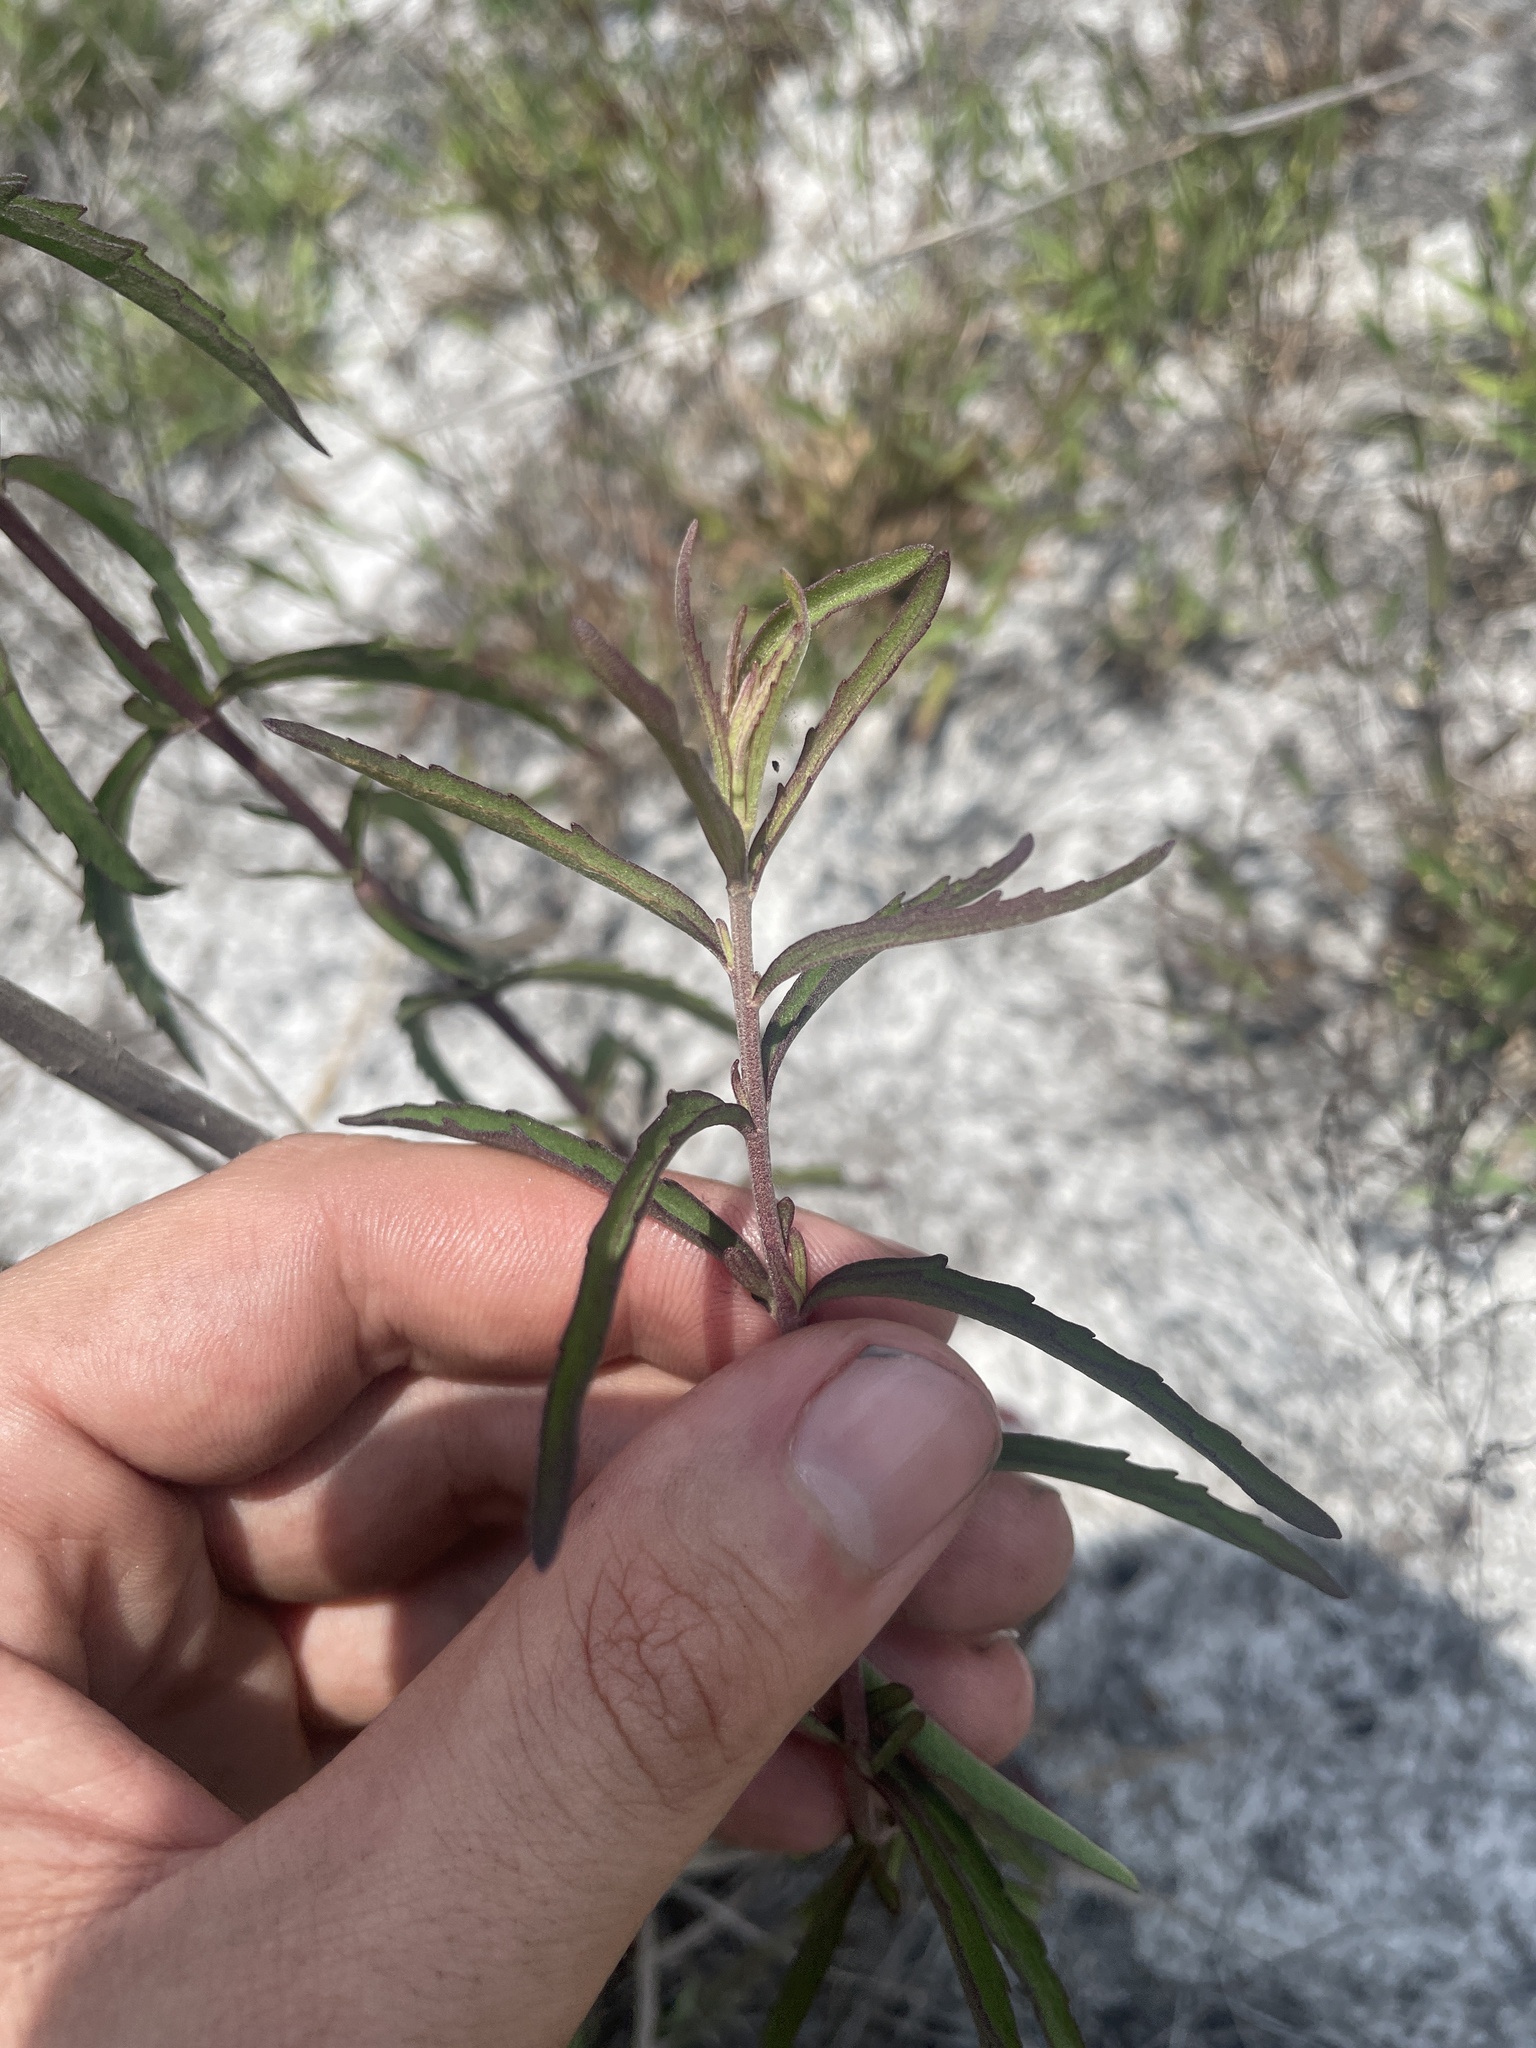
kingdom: Plantae
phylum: Tracheophyta
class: Magnoliopsida
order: Asterales
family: Asteraceae
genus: Eupatorium
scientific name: Eupatorium mohrii
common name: Mohr's thoroughwort
